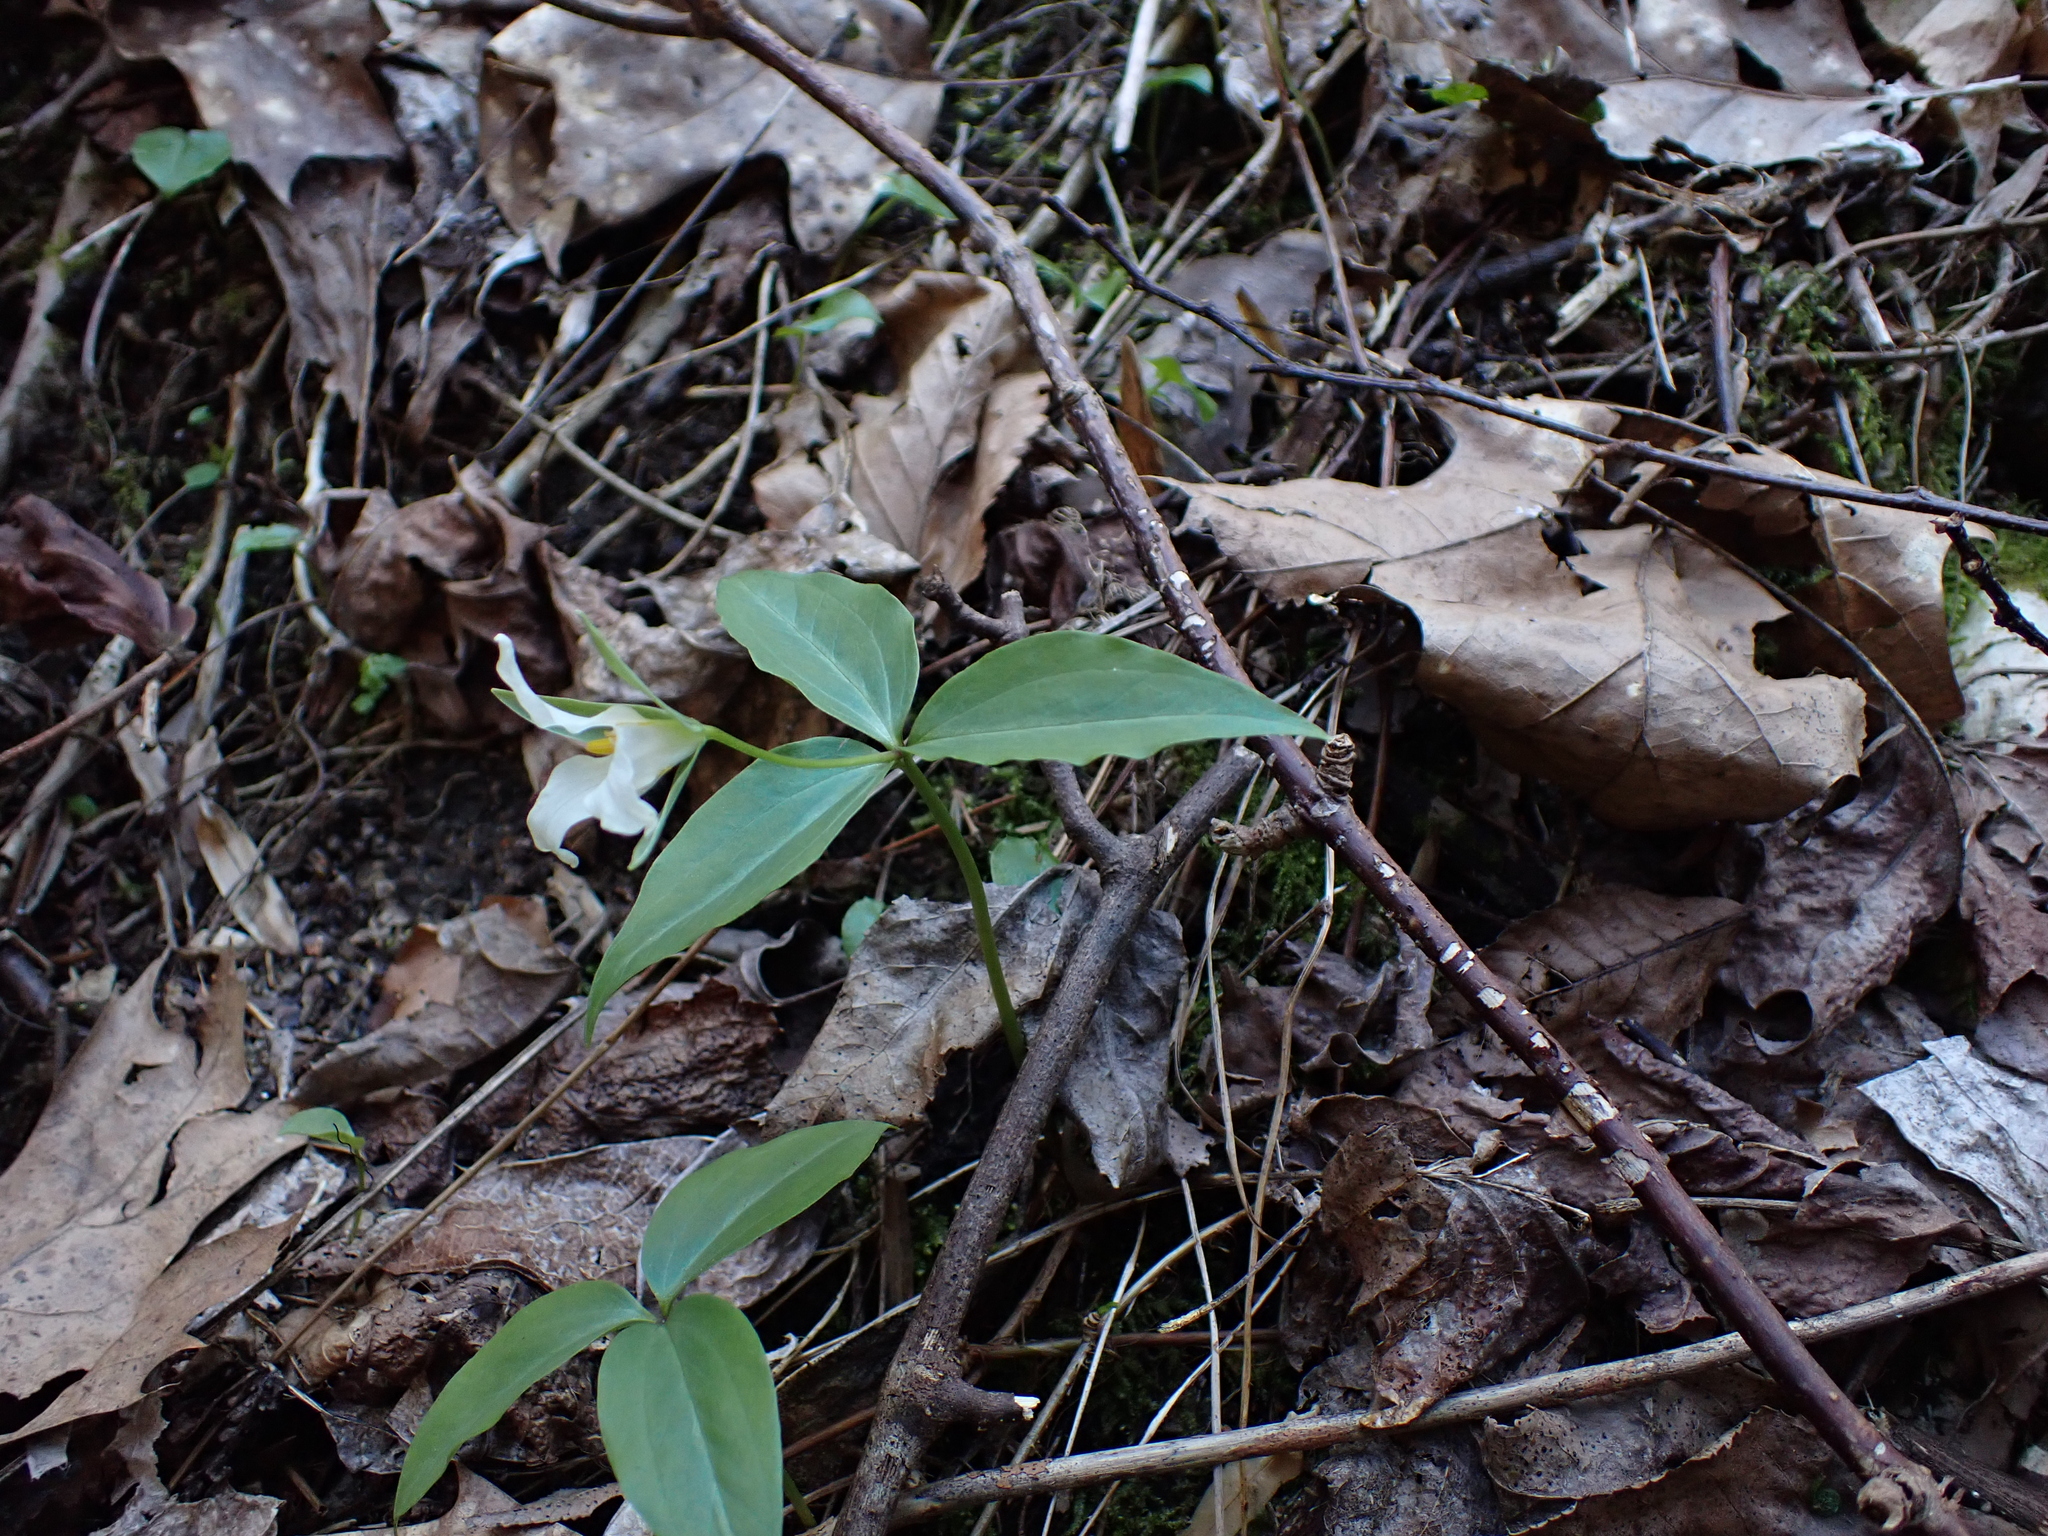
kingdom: Plantae
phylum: Tracheophyta
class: Liliopsida
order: Liliales
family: Melanthiaceae
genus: Trillium
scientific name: Trillium persistens
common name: Persistent trillium
